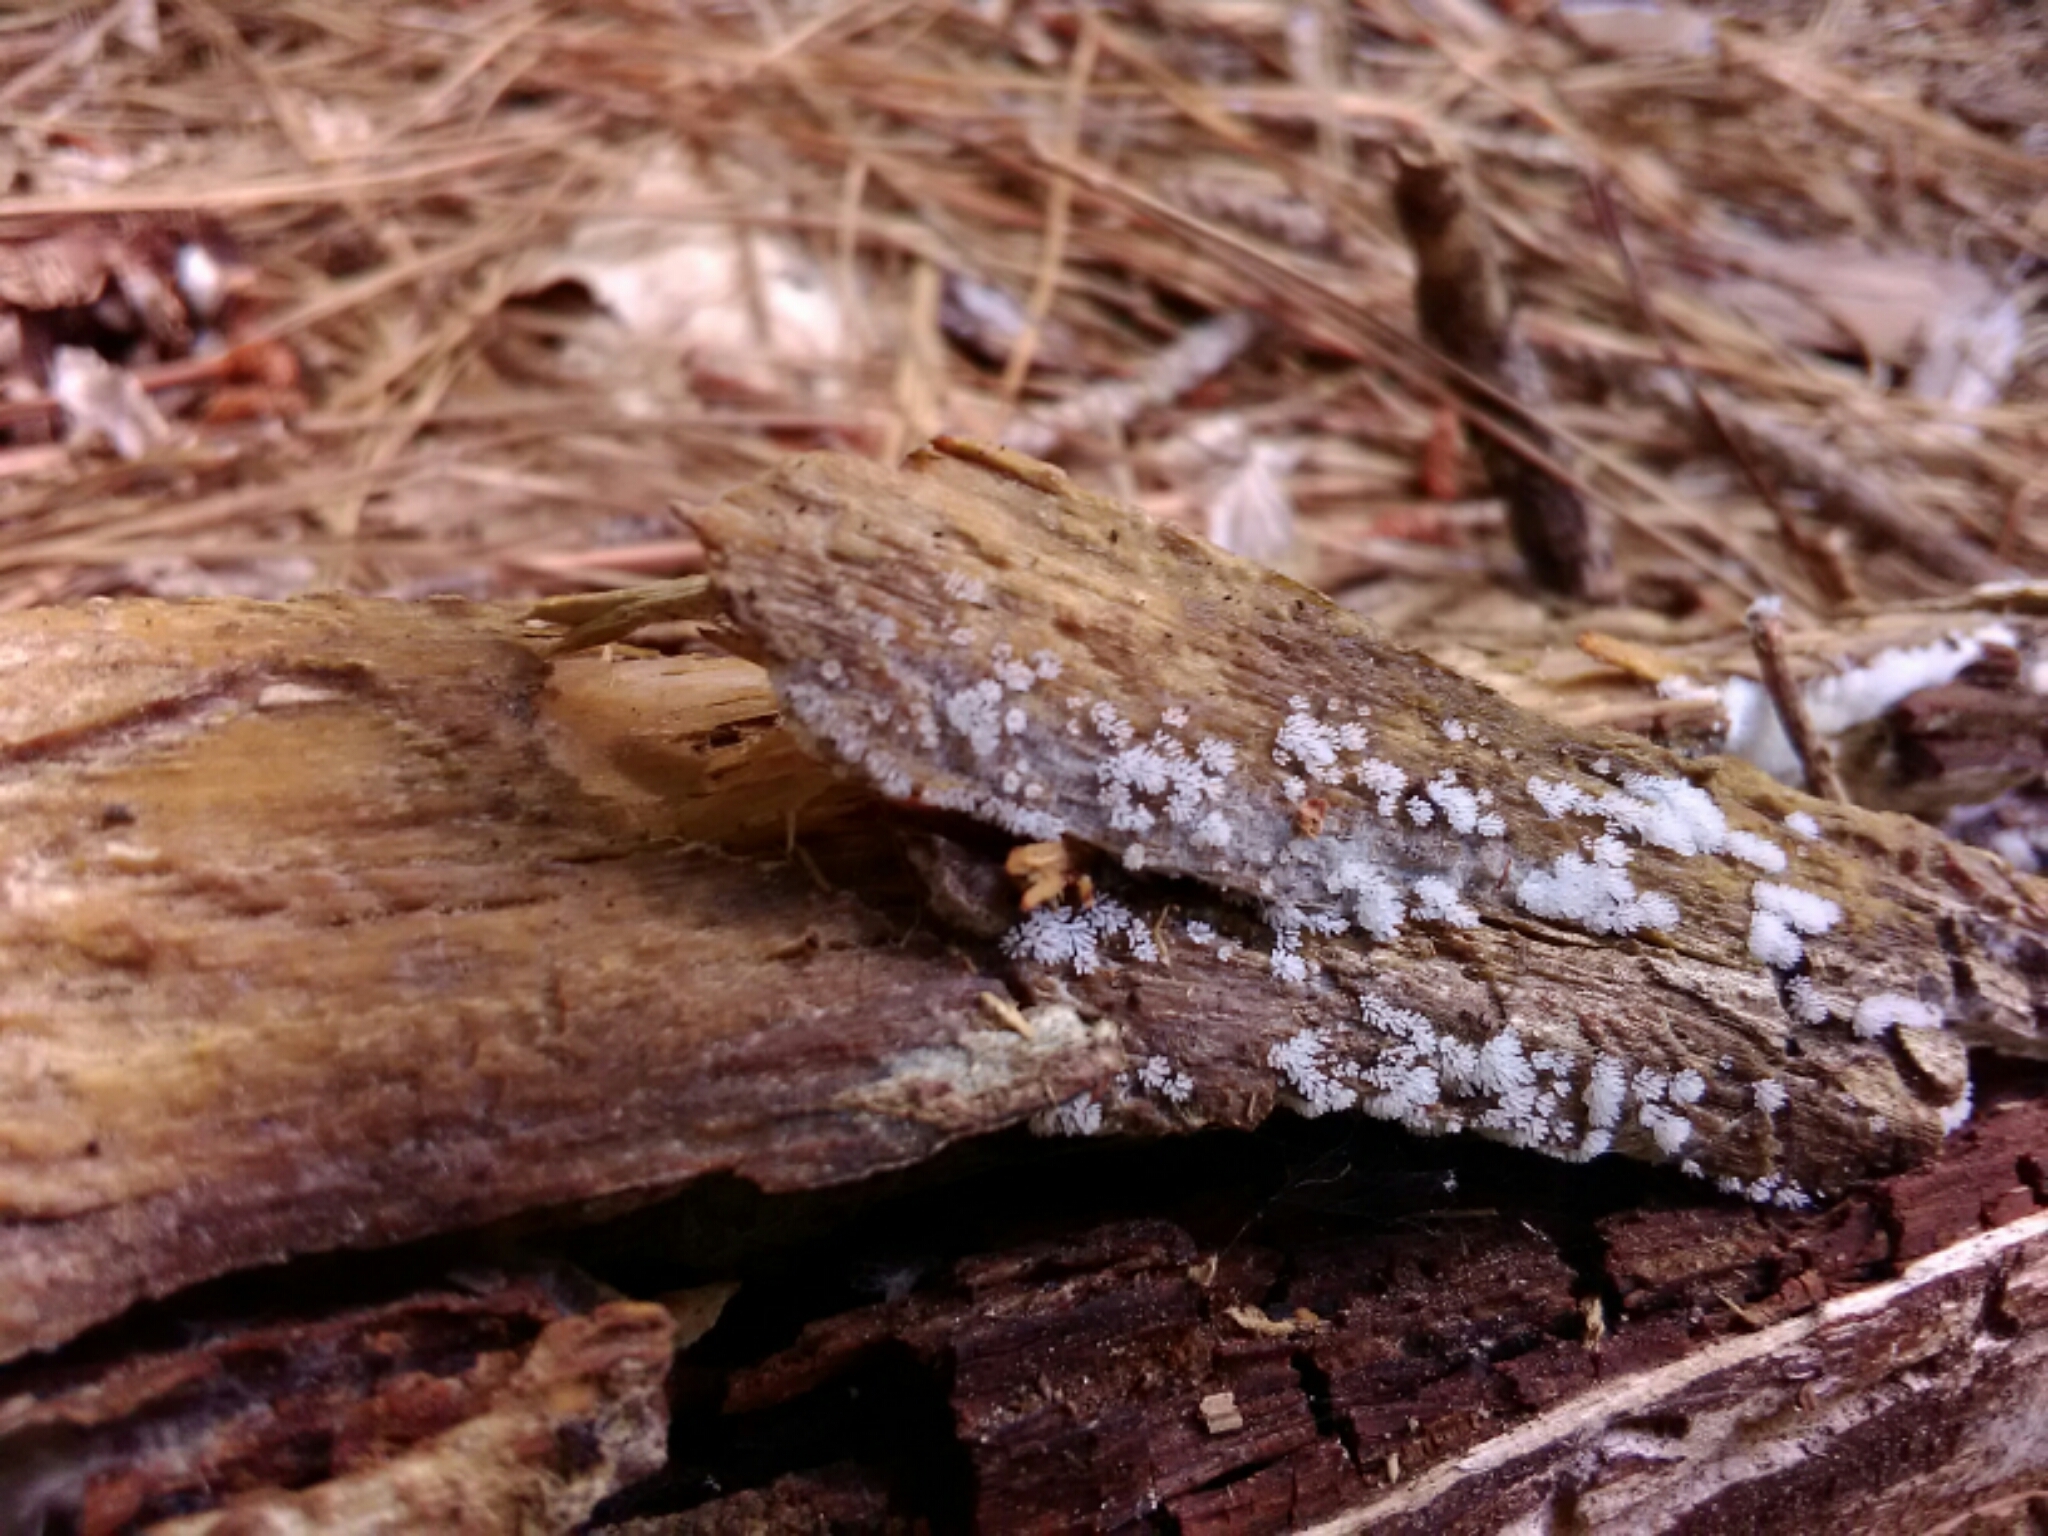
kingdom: Protozoa
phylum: Mycetozoa
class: Protosteliomycetes
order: Ceratiomyxales
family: Ceratiomyxaceae
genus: Ceratiomyxa
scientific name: Ceratiomyxa fruticulosa
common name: Honeycomb coral slime mold
